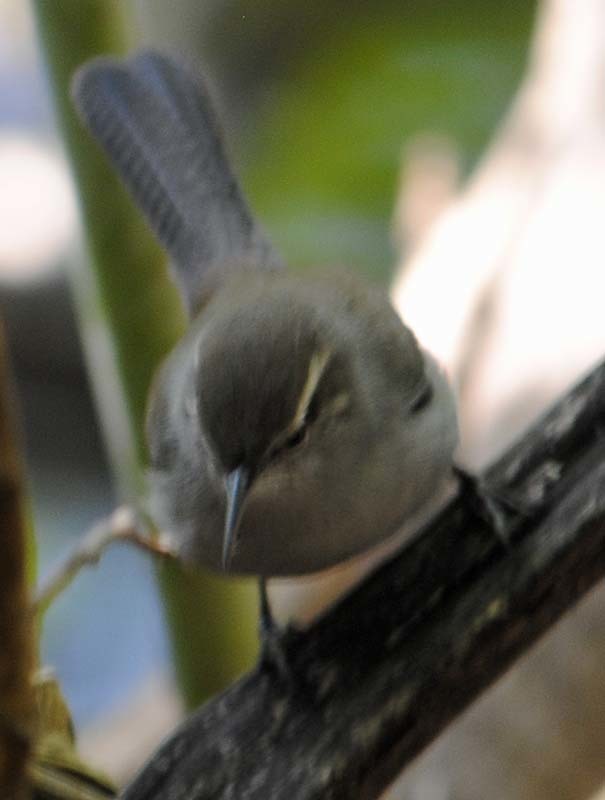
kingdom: Animalia
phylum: Chordata
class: Aves
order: Passeriformes
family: Troglodytidae
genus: Thryomanes
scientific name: Thryomanes bewickii
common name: Bewick's wren
